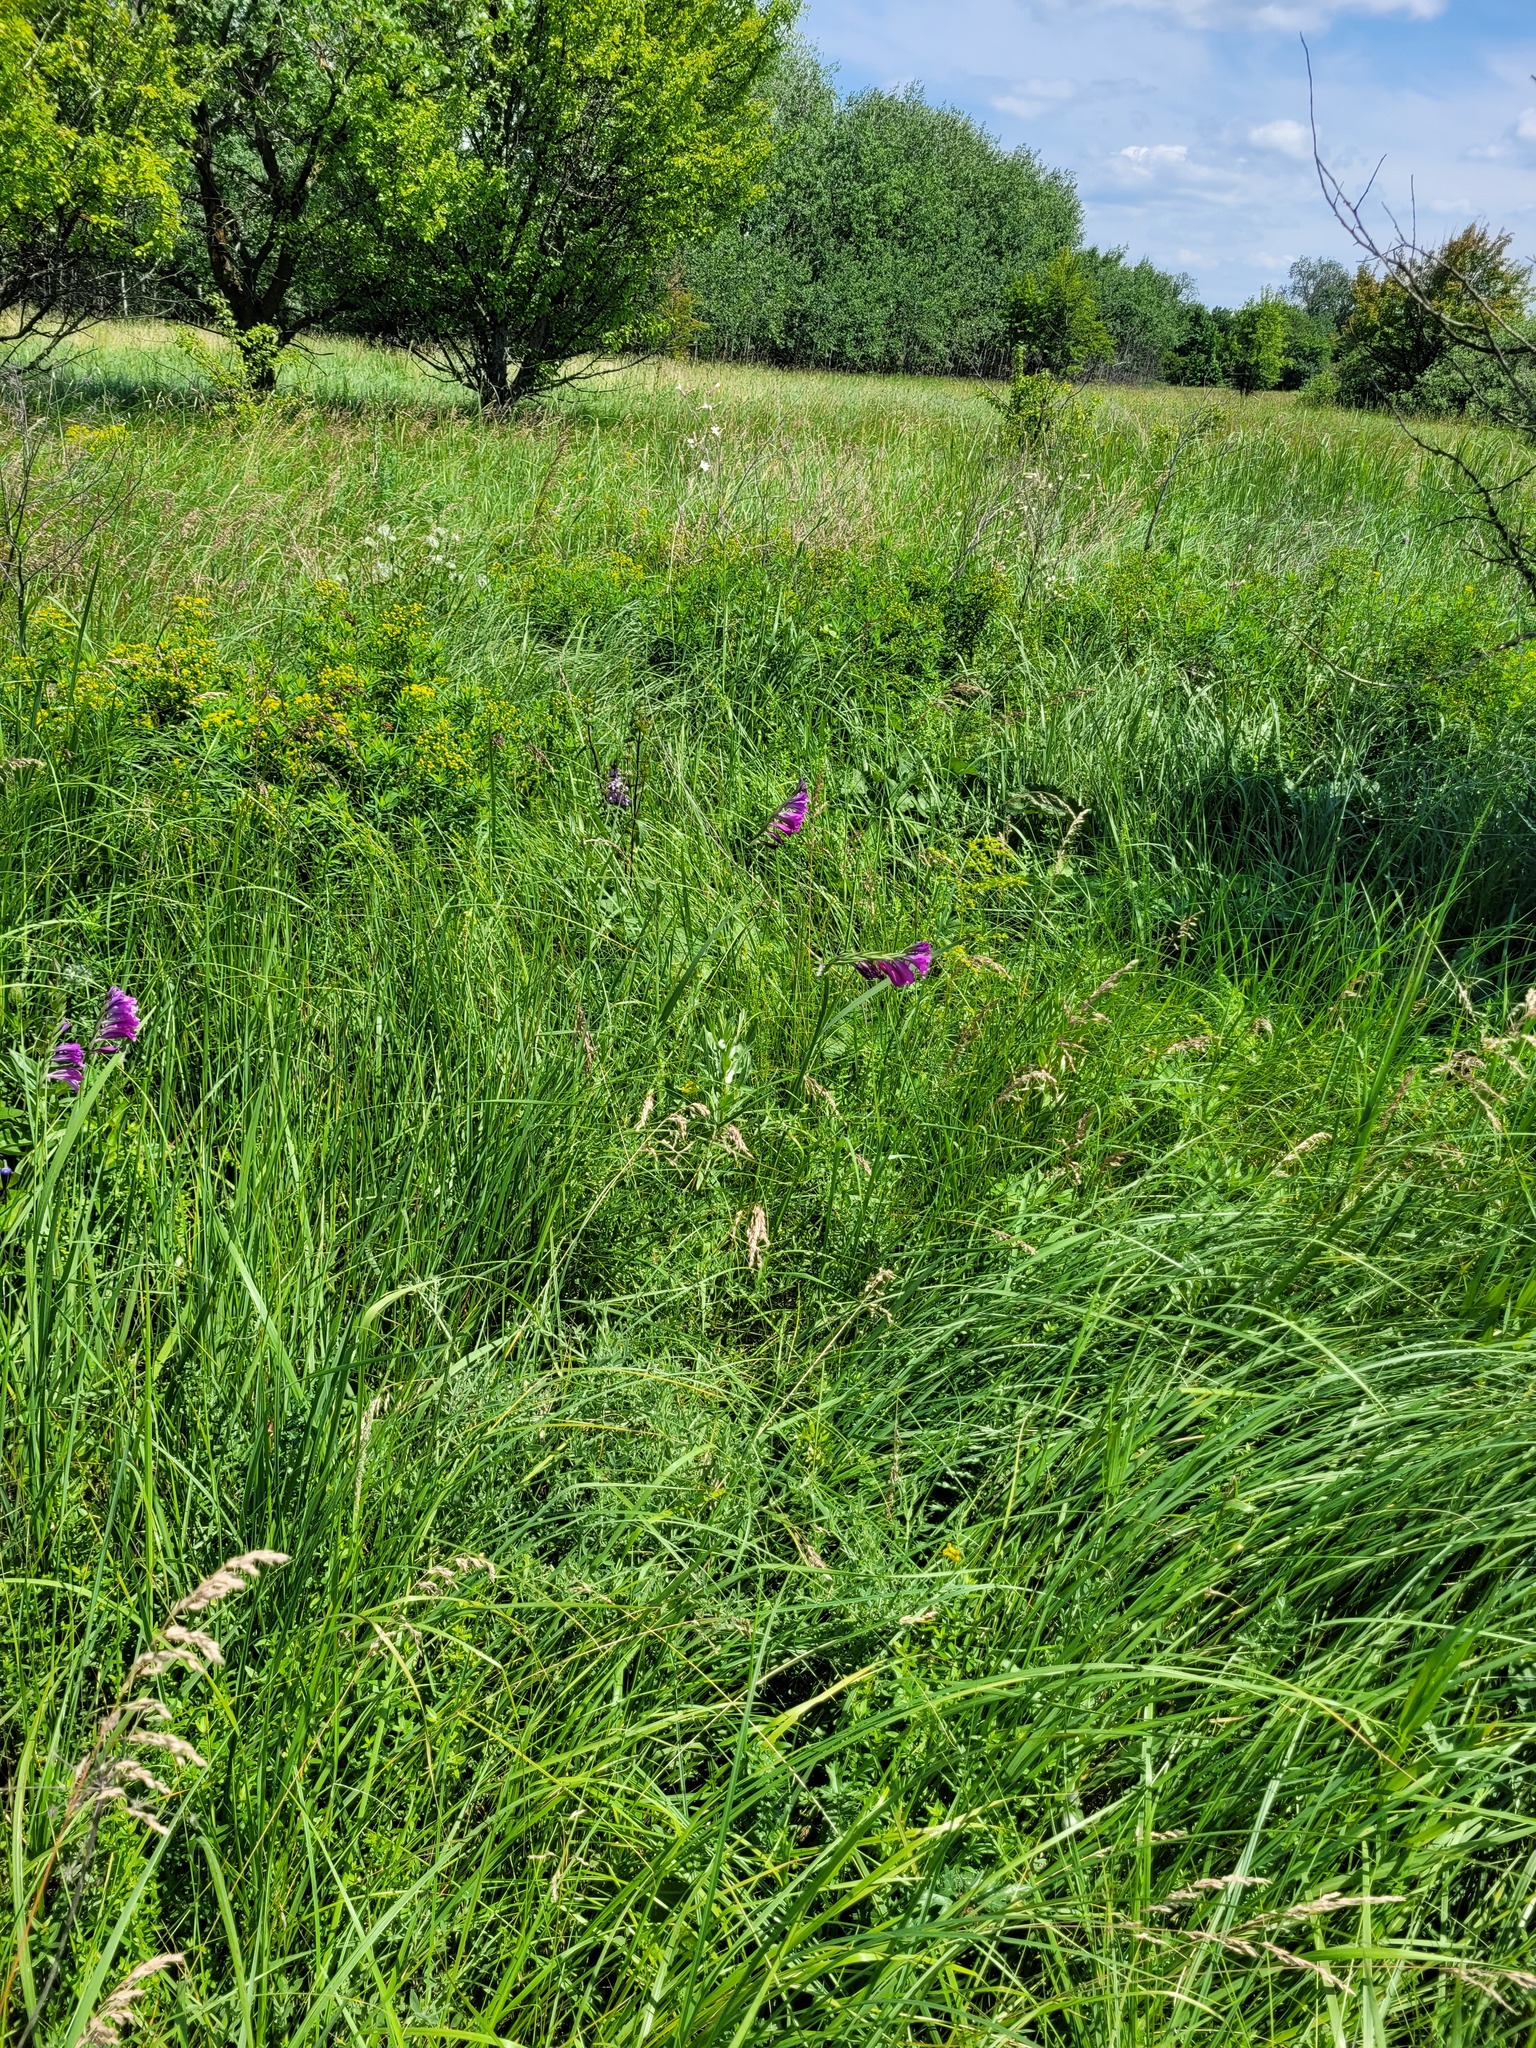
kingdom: Plantae
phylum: Tracheophyta
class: Liliopsida
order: Asparagales
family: Iridaceae
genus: Gladiolus
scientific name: Gladiolus tenuis
